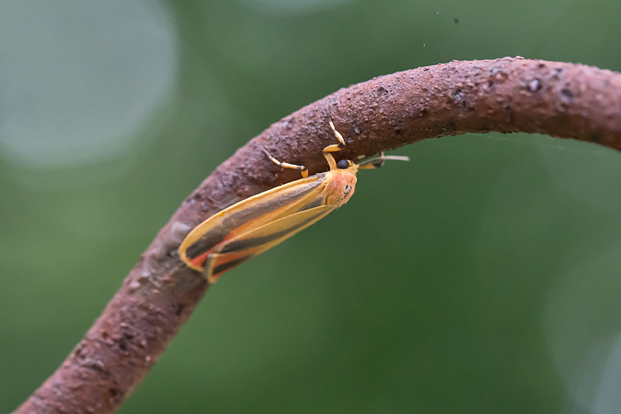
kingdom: Animalia
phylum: Arthropoda
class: Insecta
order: Lepidoptera
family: Erebidae
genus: Hypoprepia
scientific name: Hypoprepia fucosa
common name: Painted lichen moth
